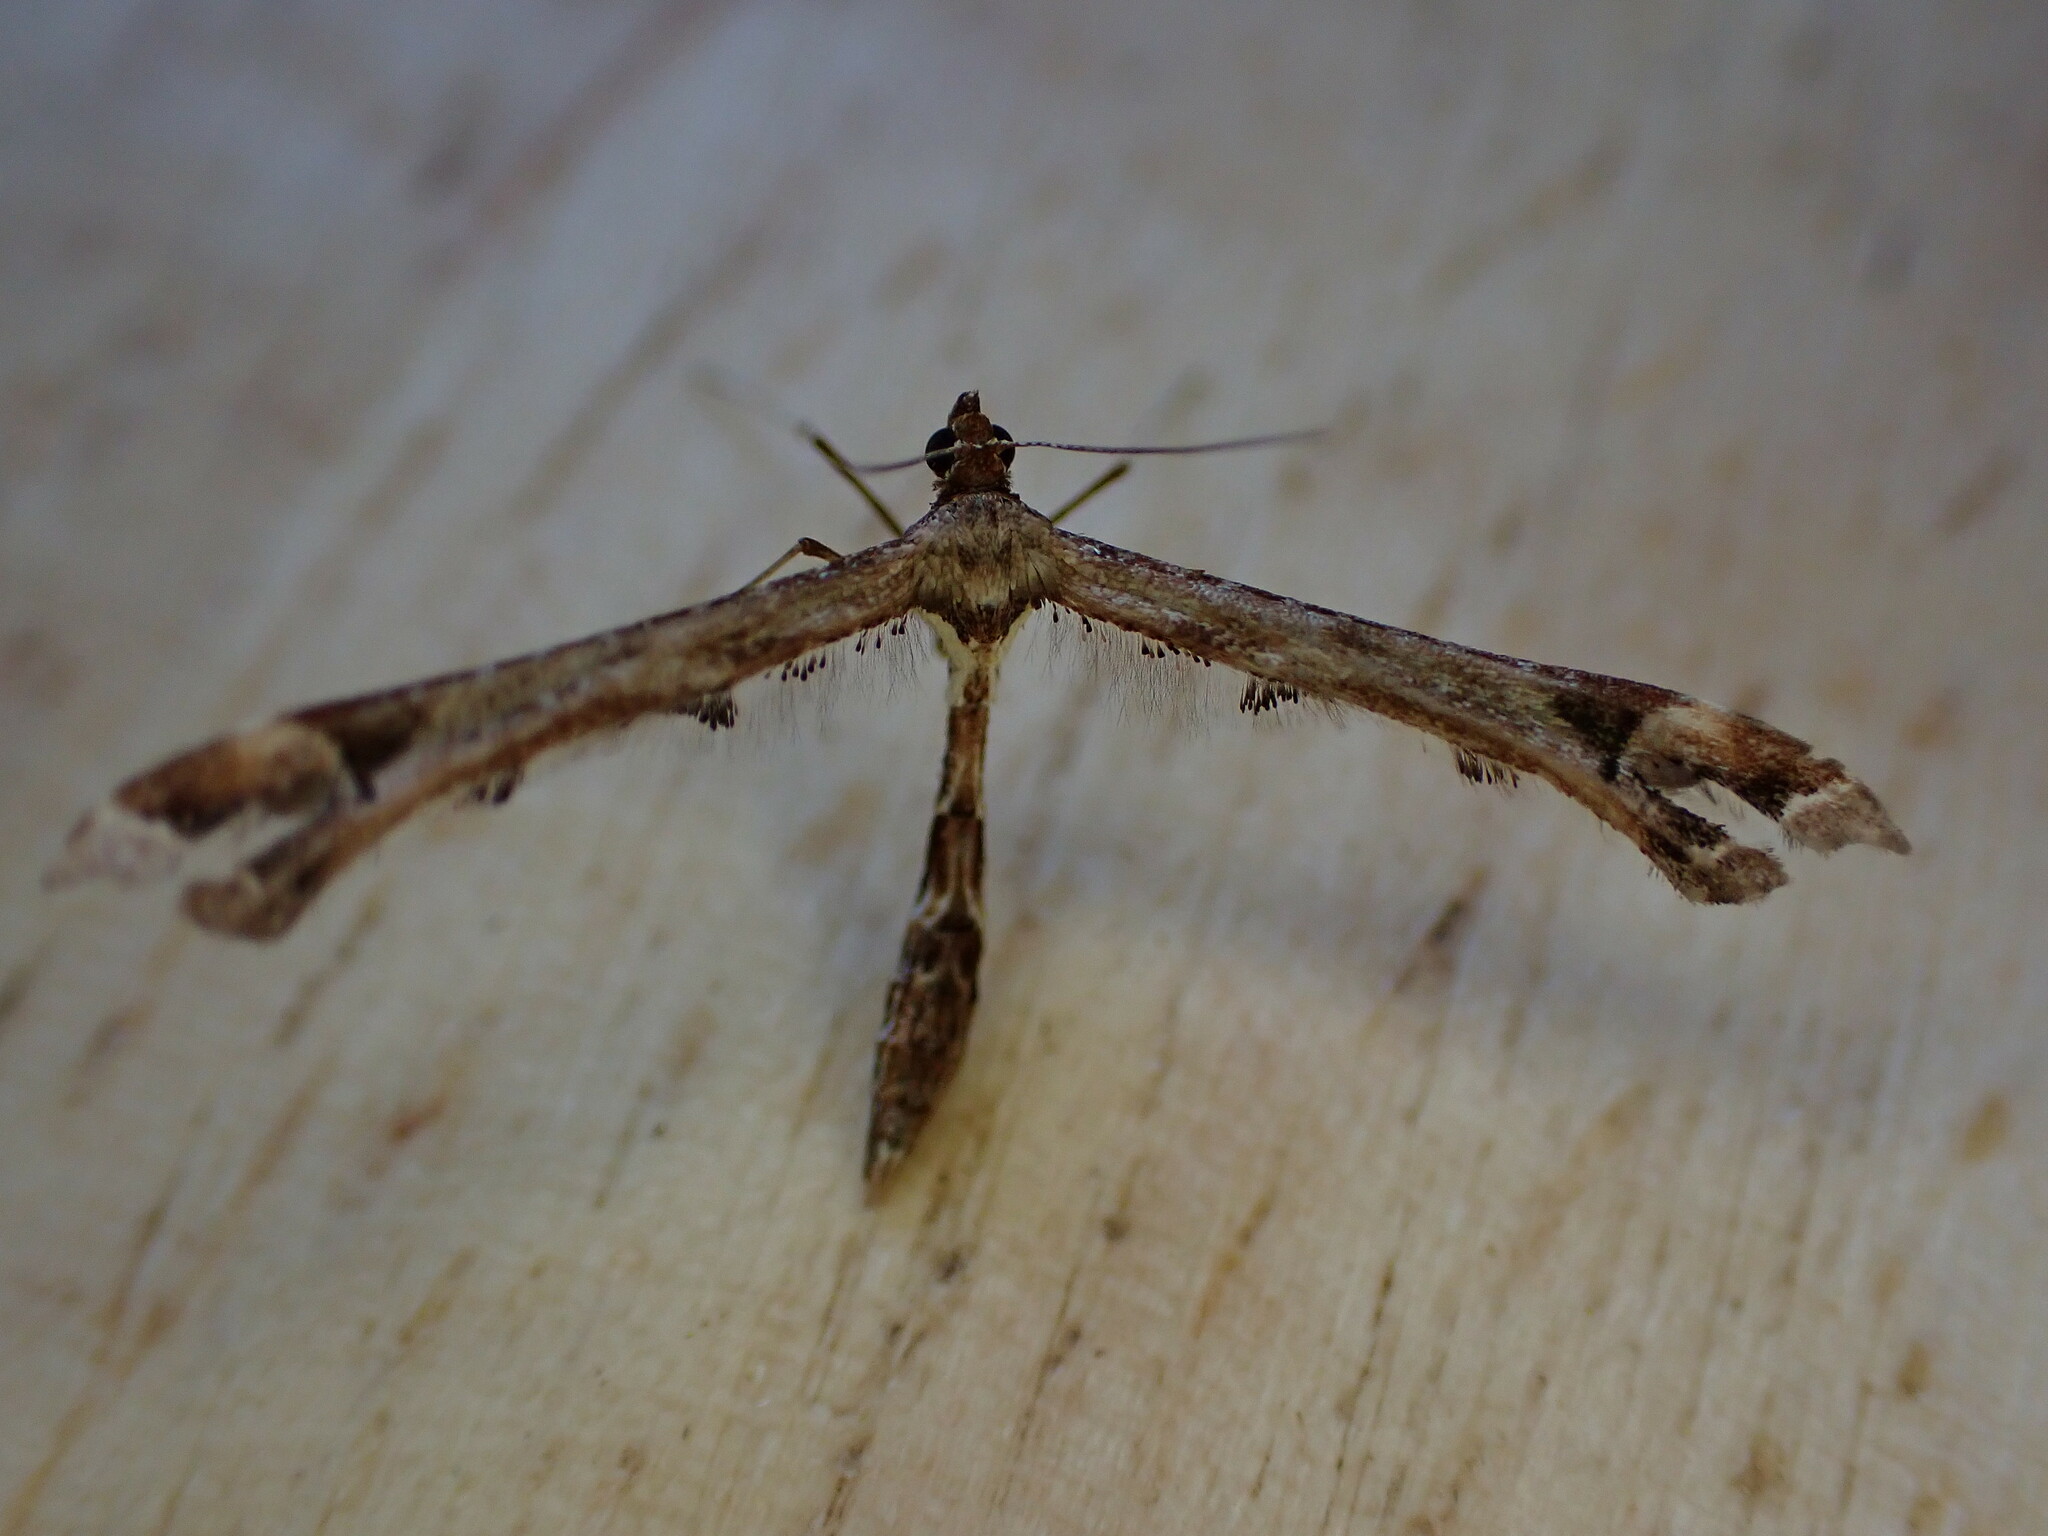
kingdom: Animalia
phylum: Arthropoda
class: Insecta
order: Lepidoptera
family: Pterophoridae
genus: Amblyptilia
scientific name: Amblyptilia acanthadactyla
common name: Beautiful plume
